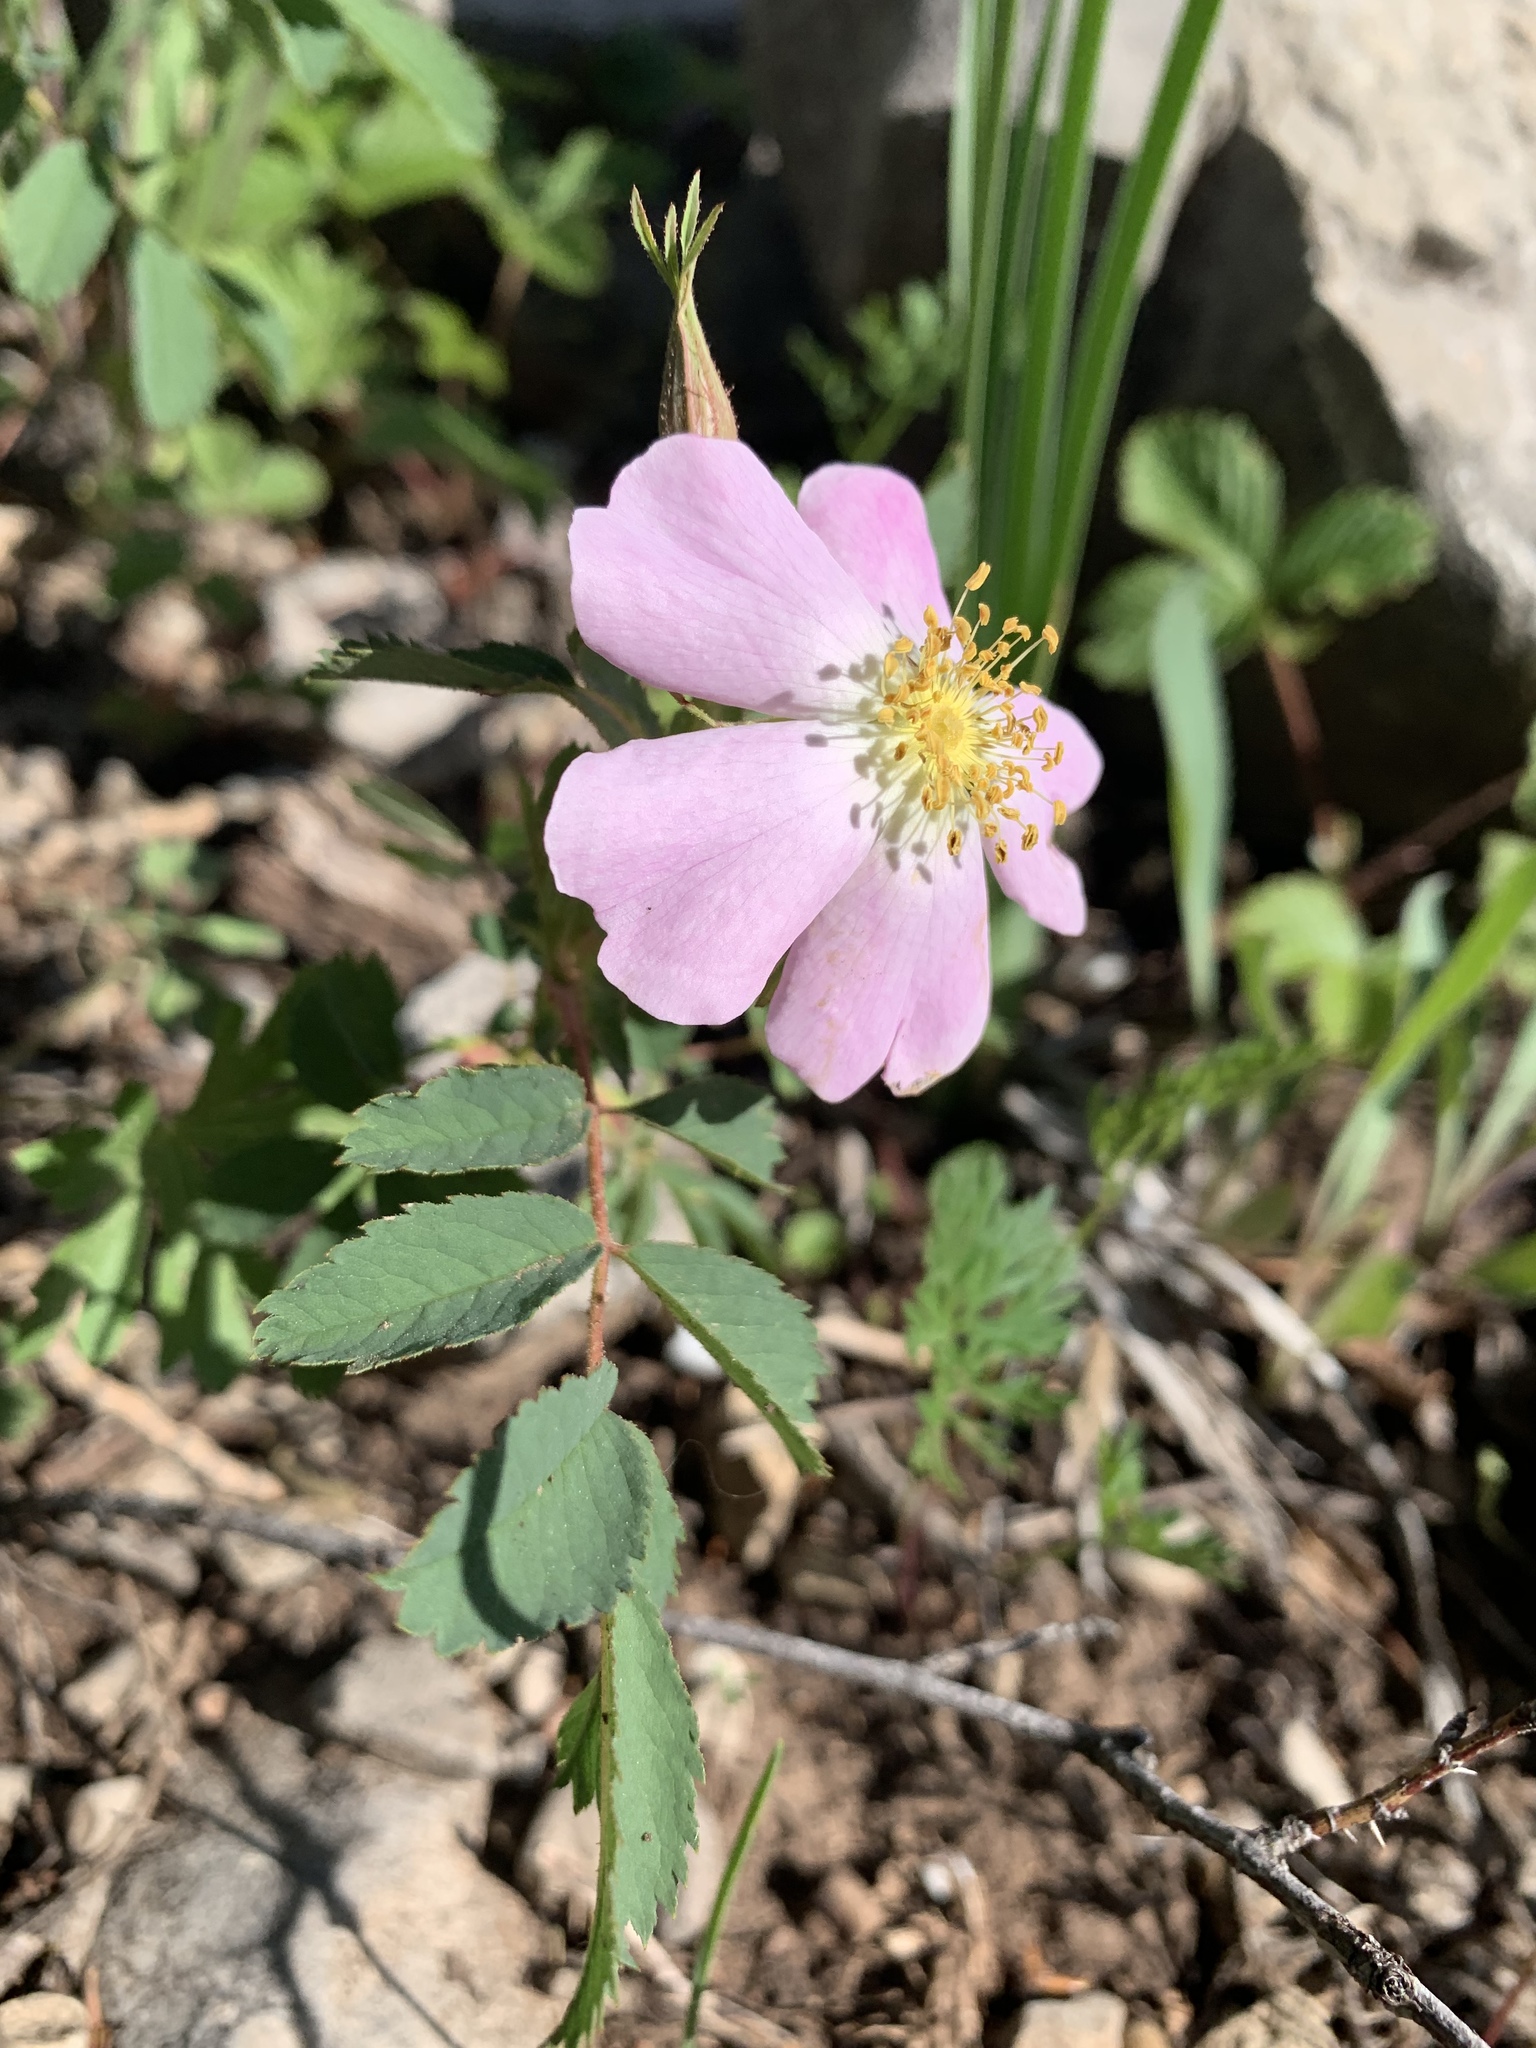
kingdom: Plantae
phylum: Tracheophyta
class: Magnoliopsida
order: Rosales
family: Rosaceae
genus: Rosa
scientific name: Rosa woodsii
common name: Woods's rose
